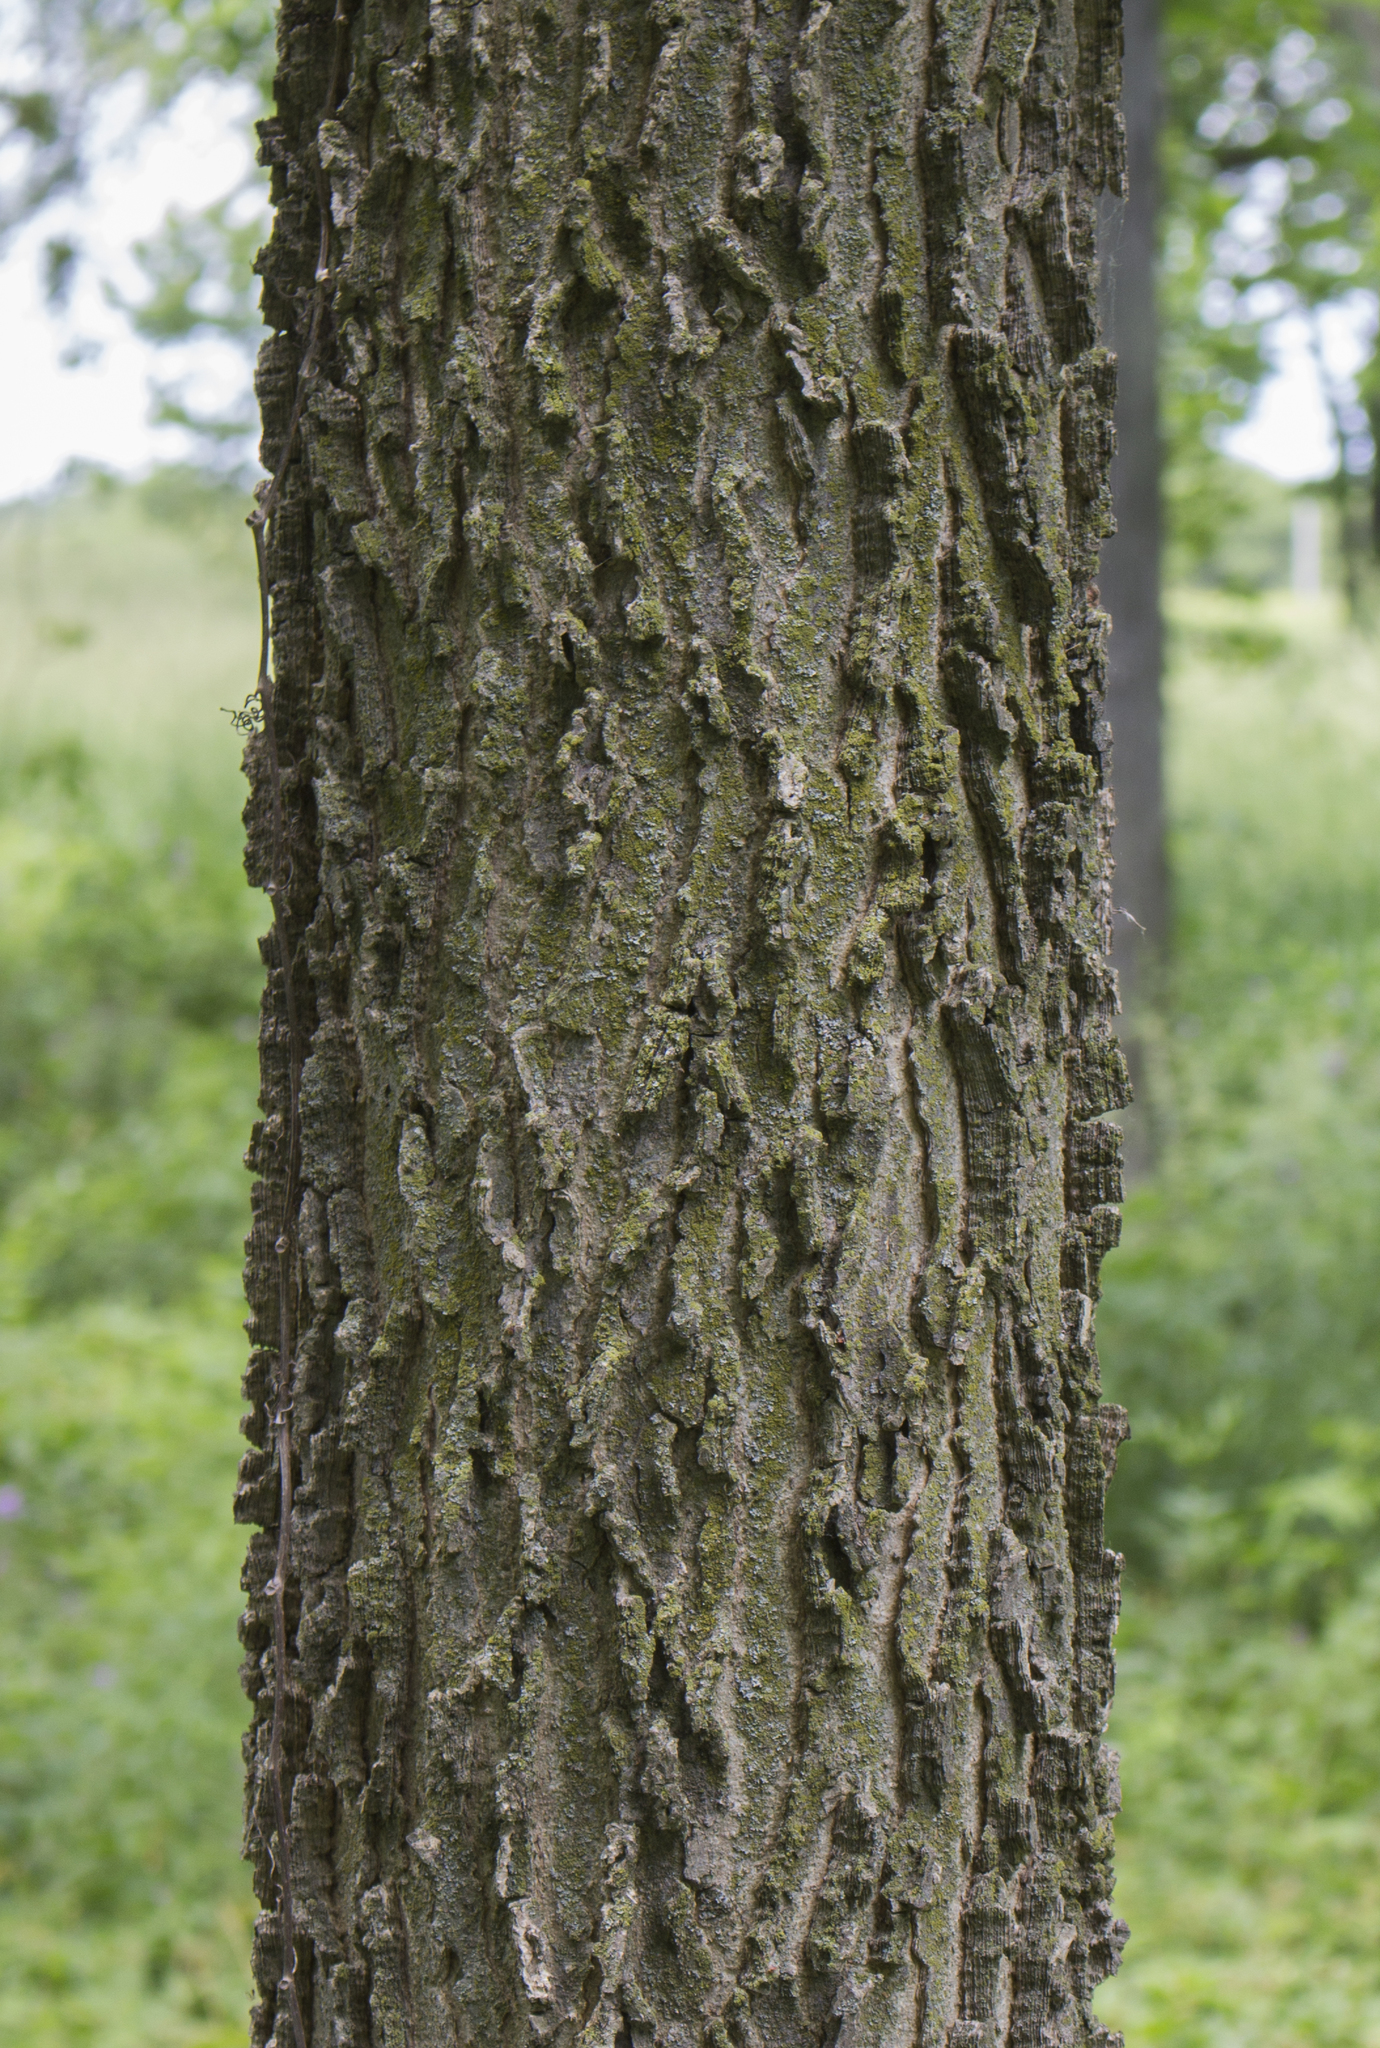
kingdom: Plantae
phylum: Tracheophyta
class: Magnoliopsida
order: Rosales
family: Cannabaceae
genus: Celtis
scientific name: Celtis occidentalis
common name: Common hackberry
